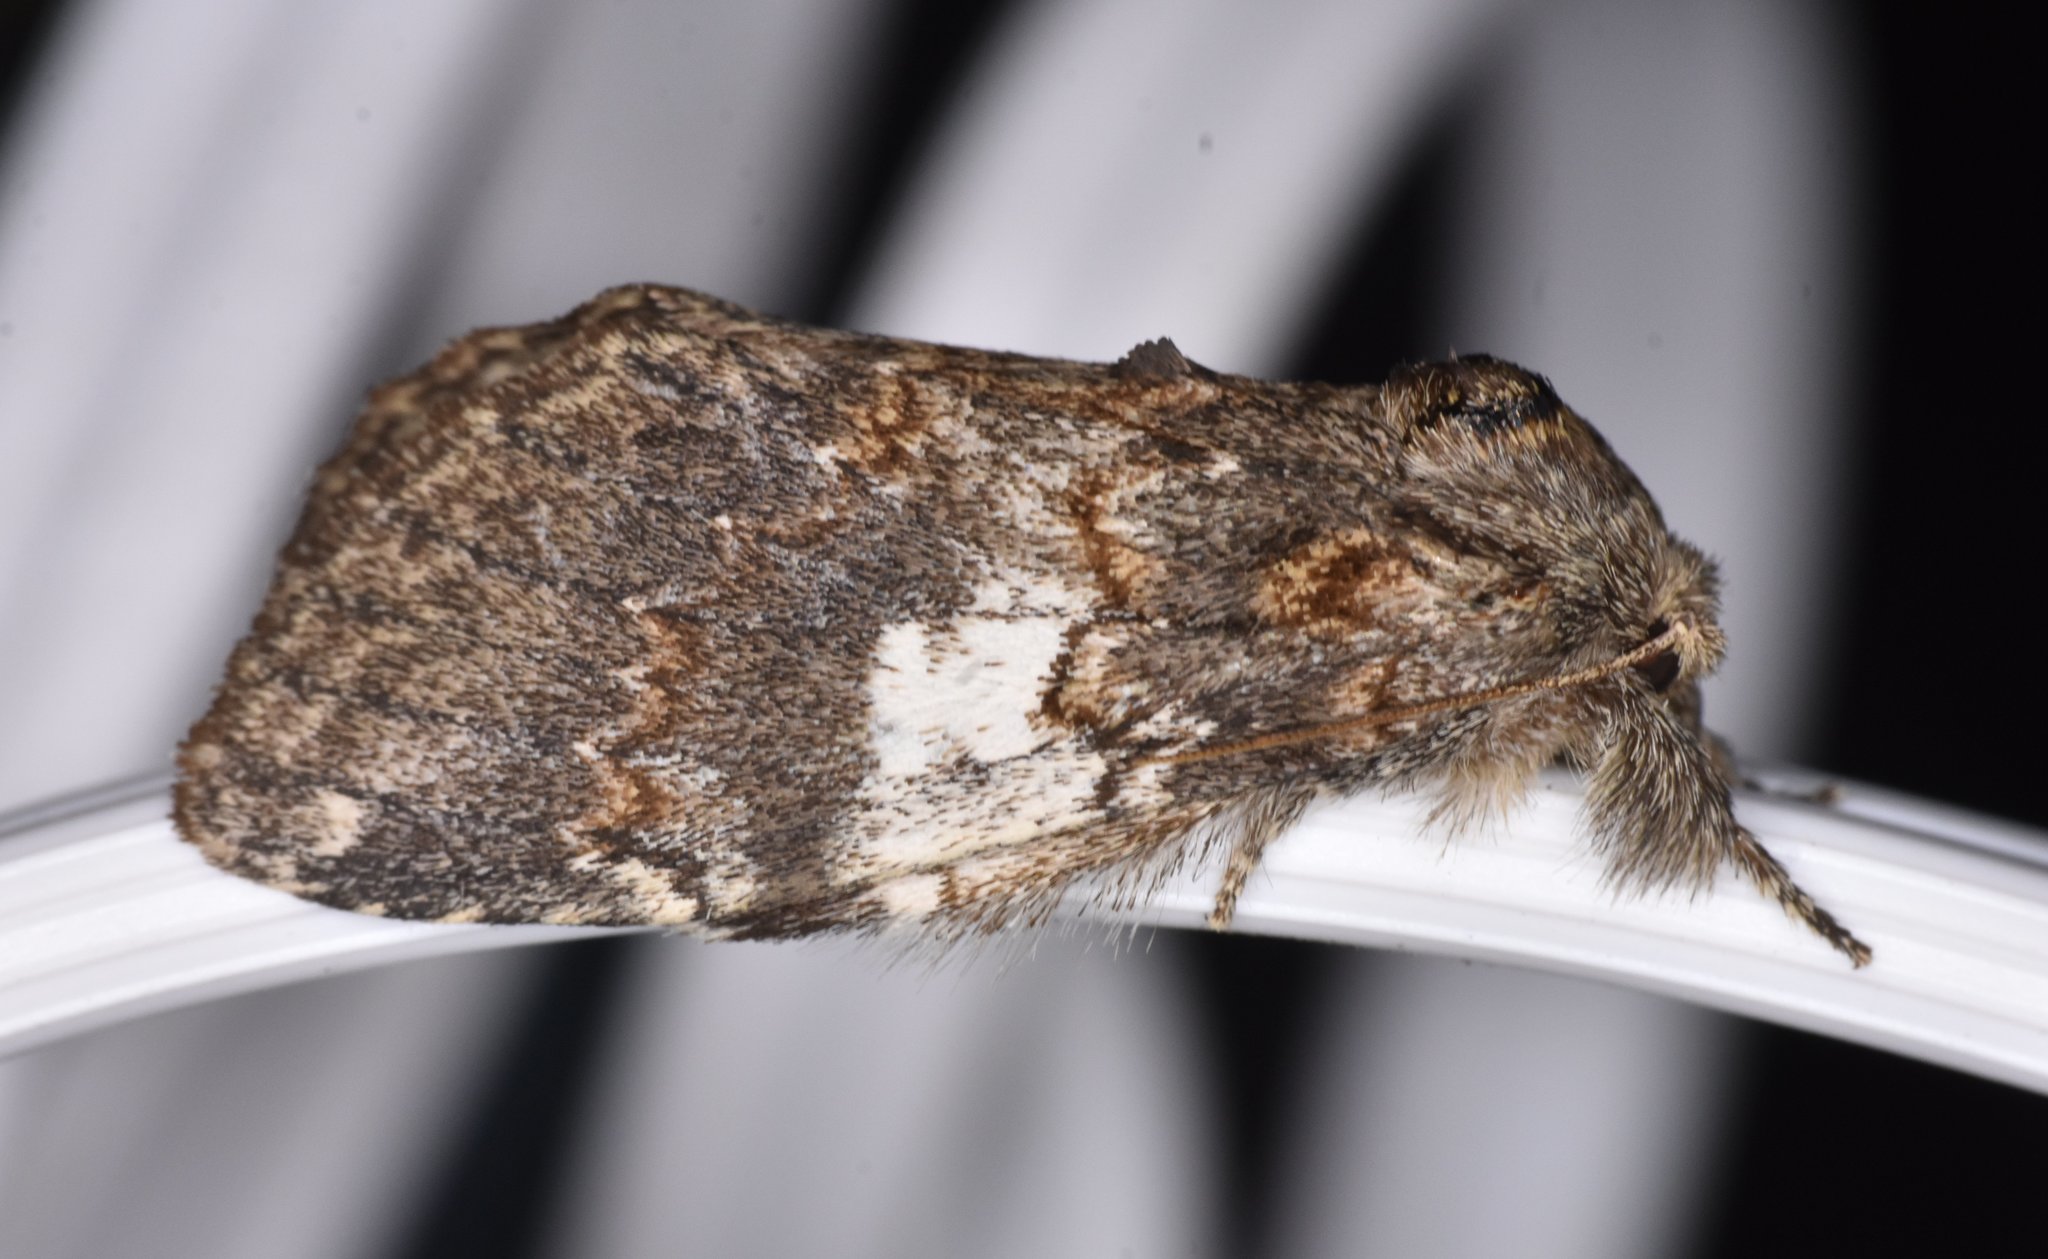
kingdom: Animalia
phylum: Arthropoda
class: Insecta
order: Lepidoptera
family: Notodontidae
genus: Peridea
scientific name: Peridea angulosa
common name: Angulose prominent
